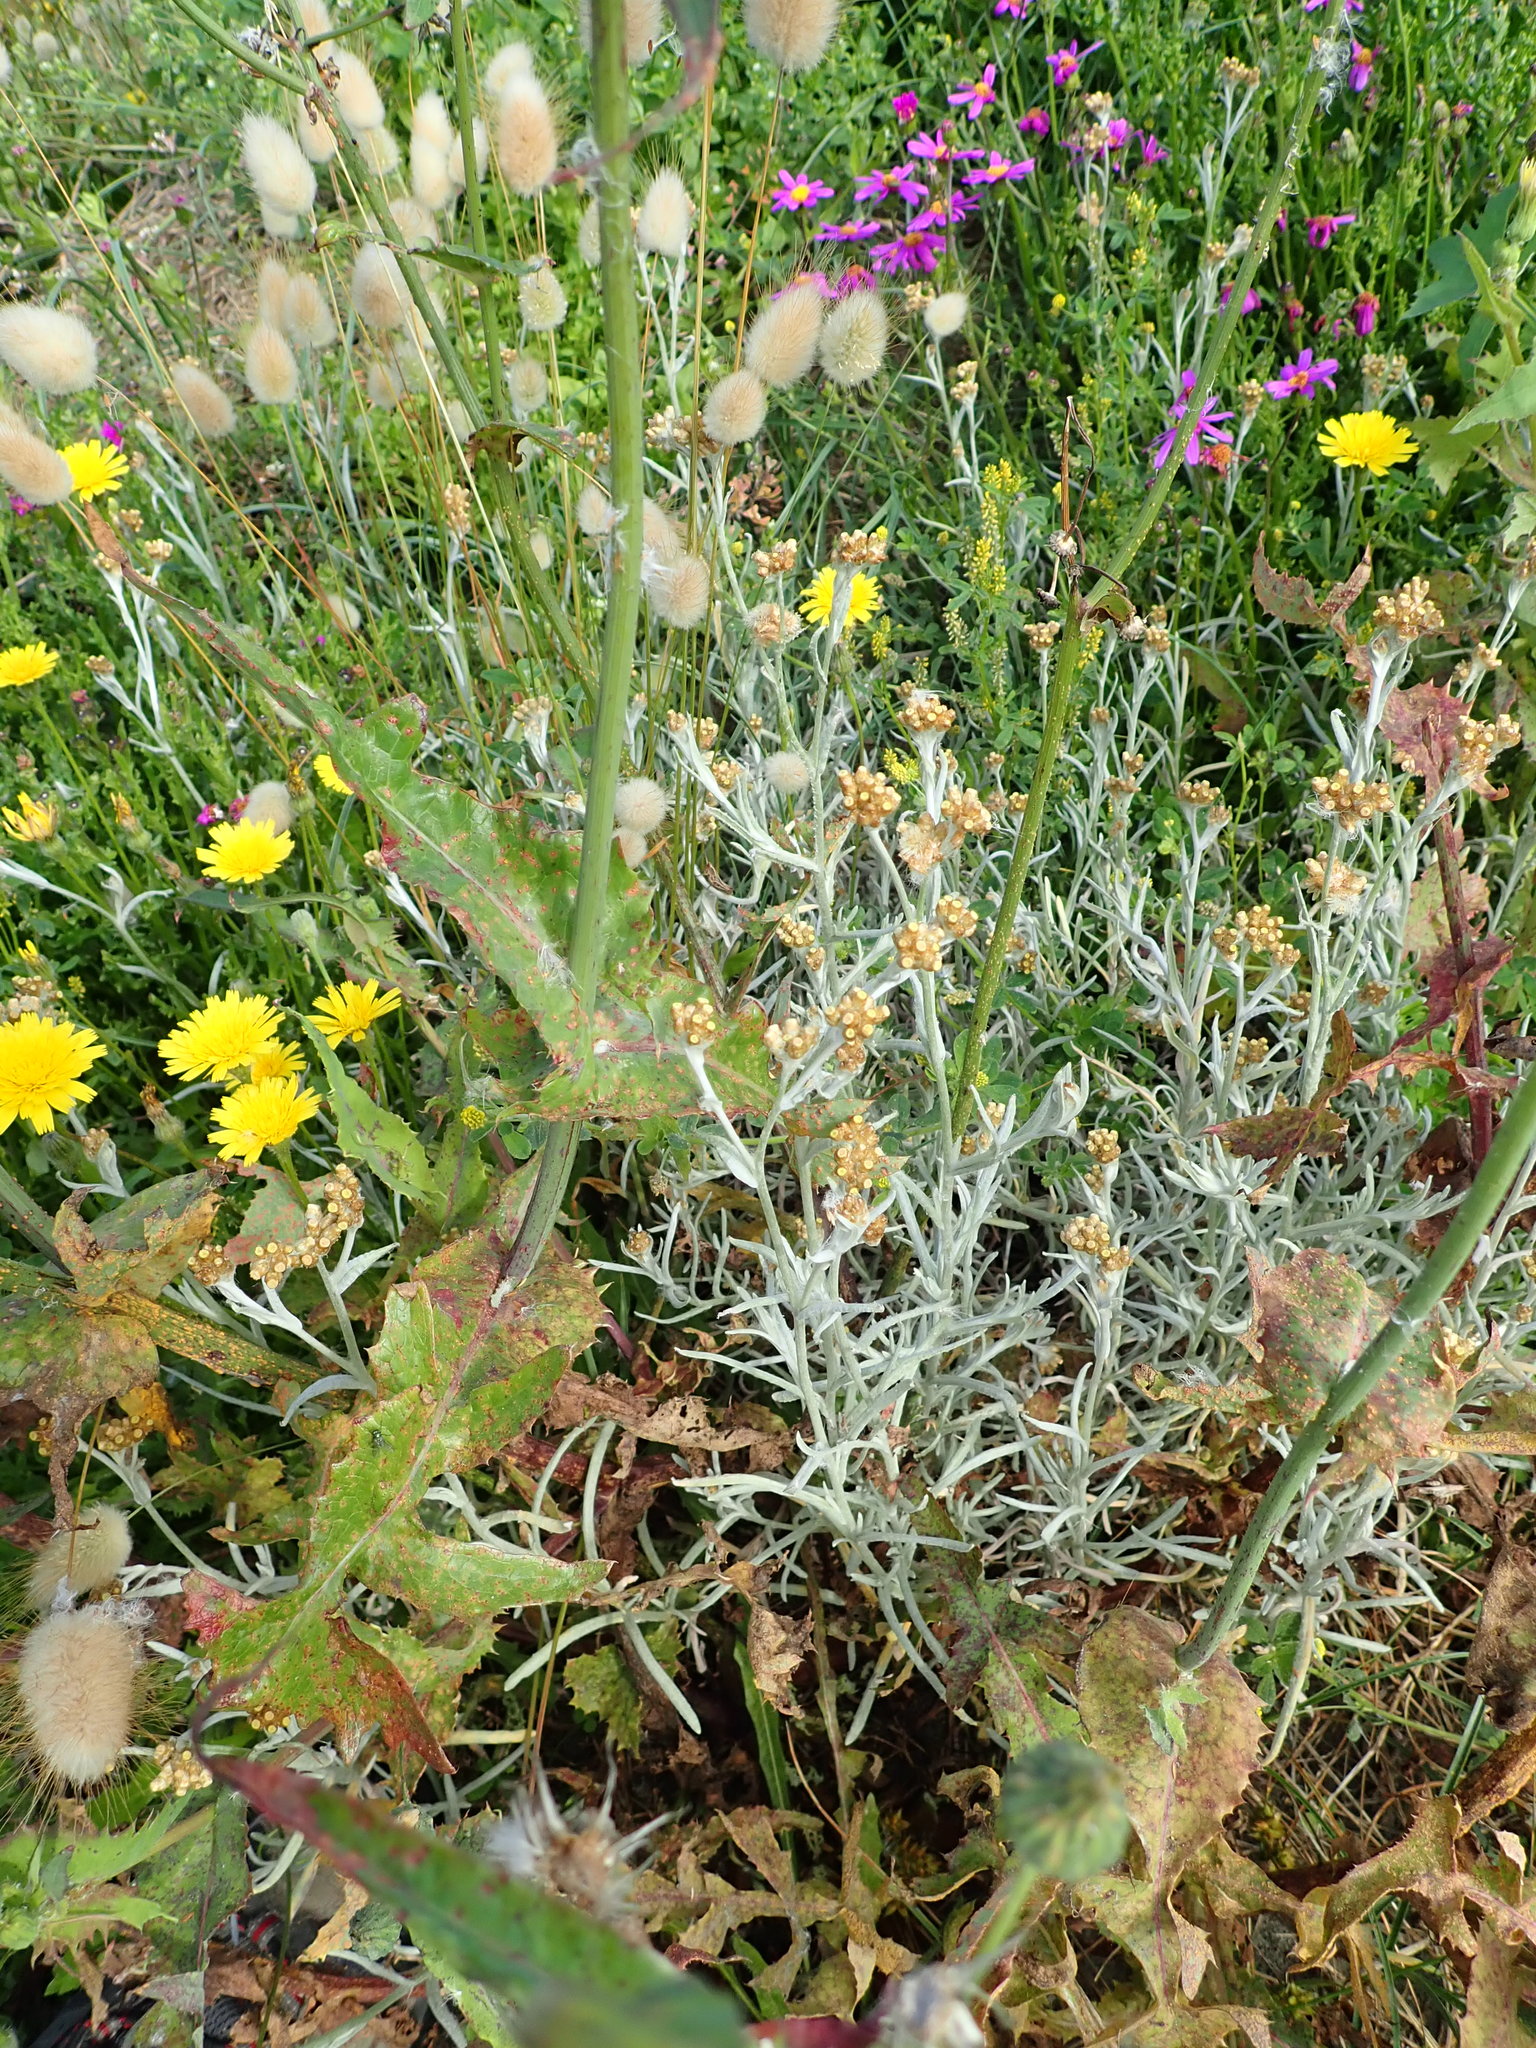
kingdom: Plantae
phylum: Tracheophyta
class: Magnoliopsida
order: Asterales
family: Asteraceae
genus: Helichrysum
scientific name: Helichrysum luteoalbum
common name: Daisy
